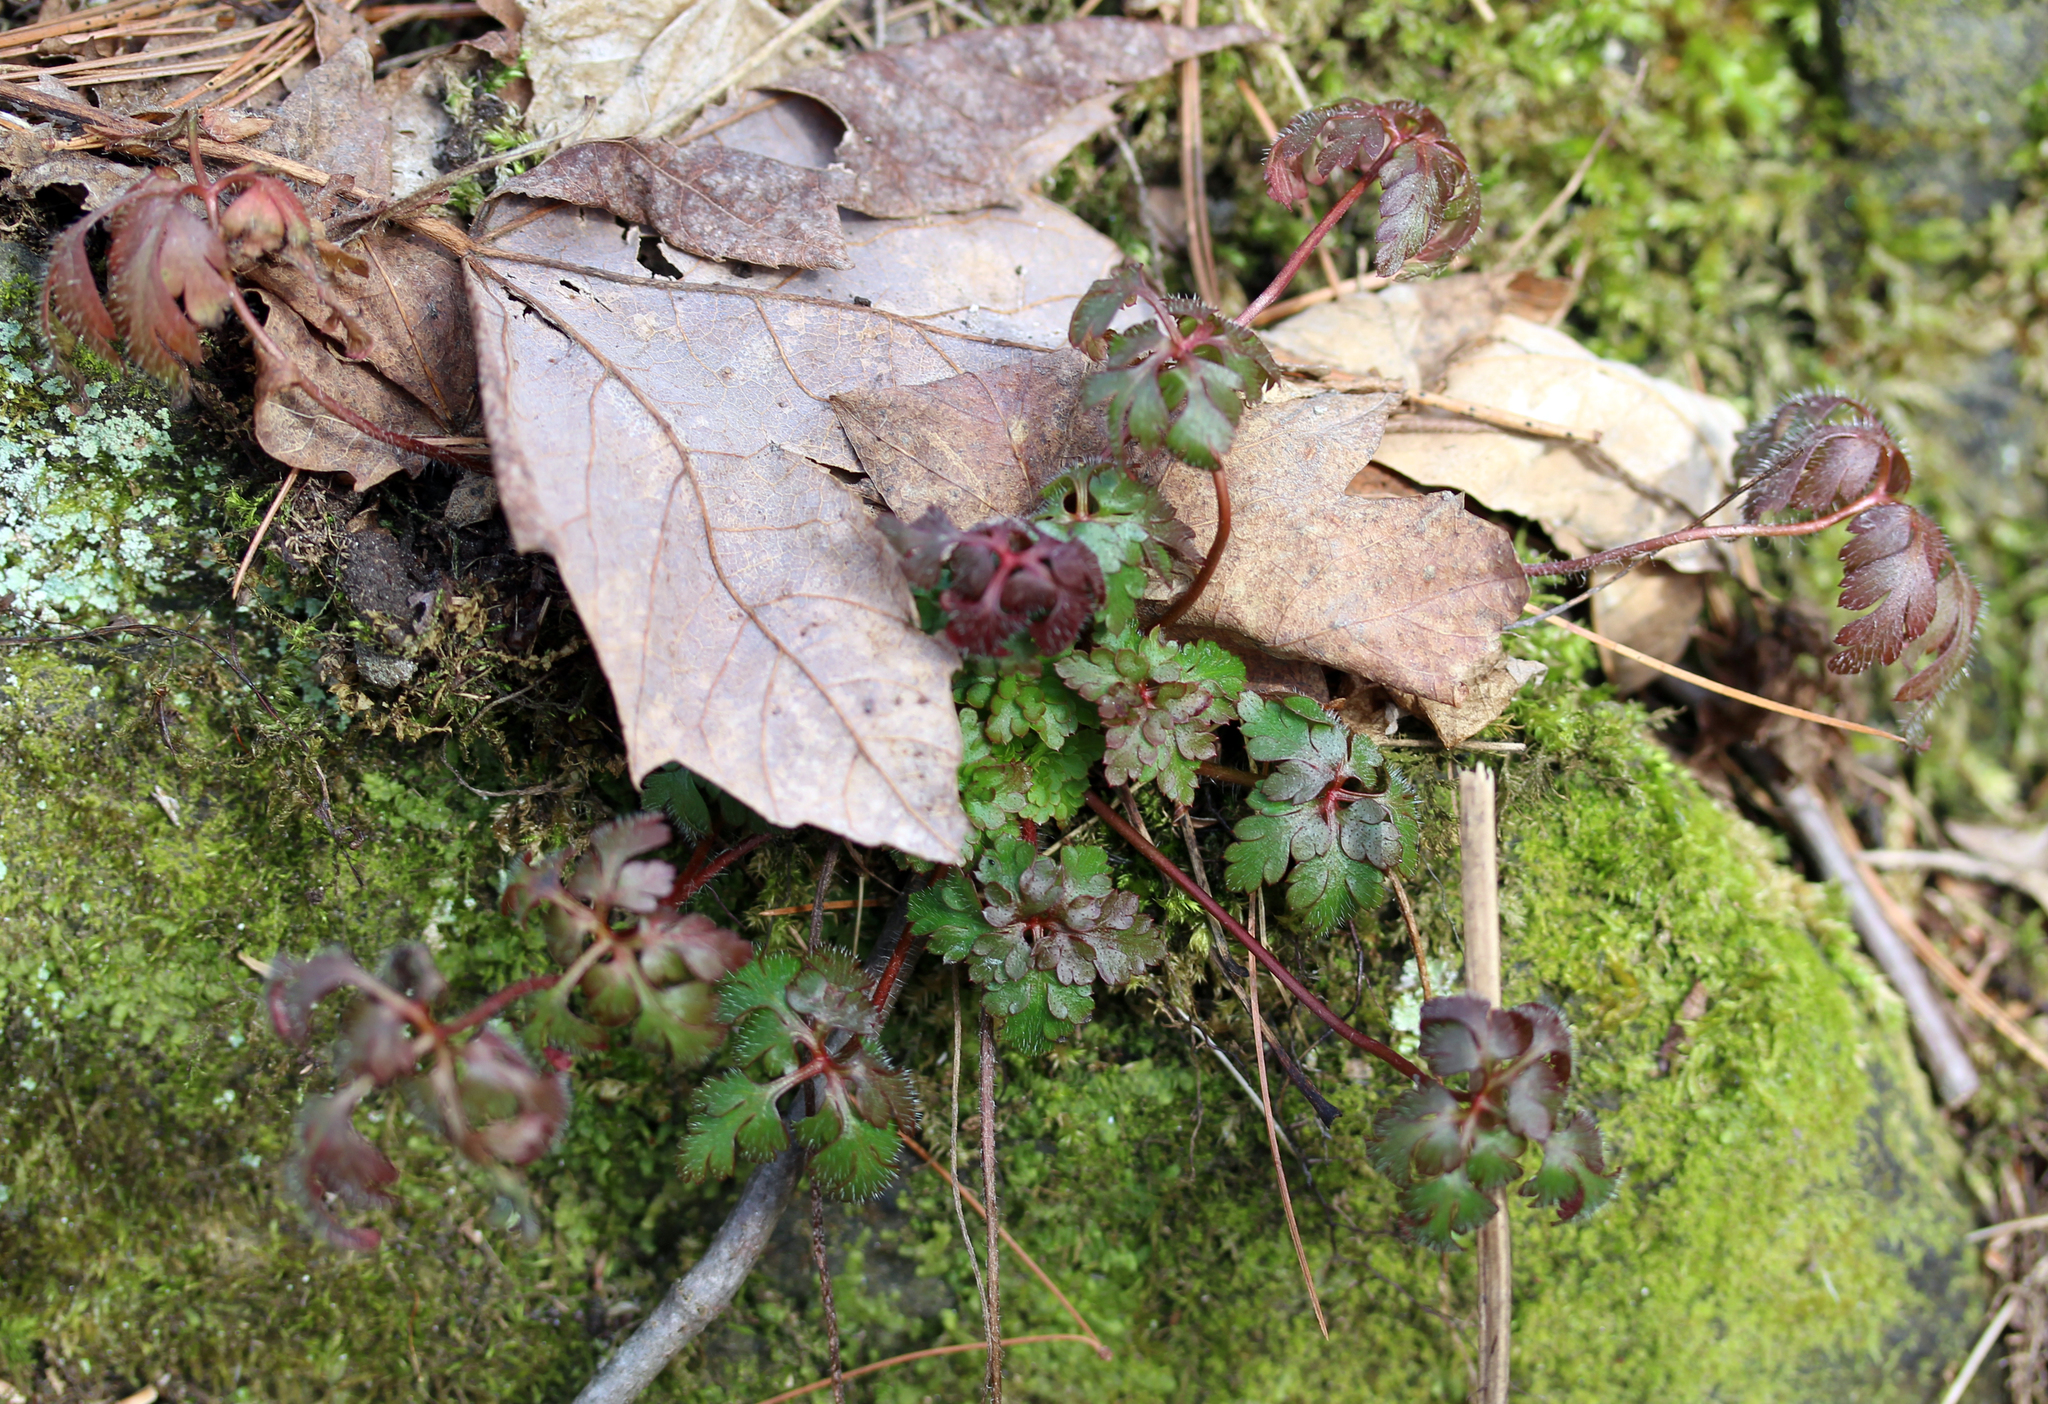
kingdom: Plantae
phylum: Tracheophyta
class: Magnoliopsida
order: Geraniales
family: Geraniaceae
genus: Geranium
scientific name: Geranium robertianum
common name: Herb-robert
